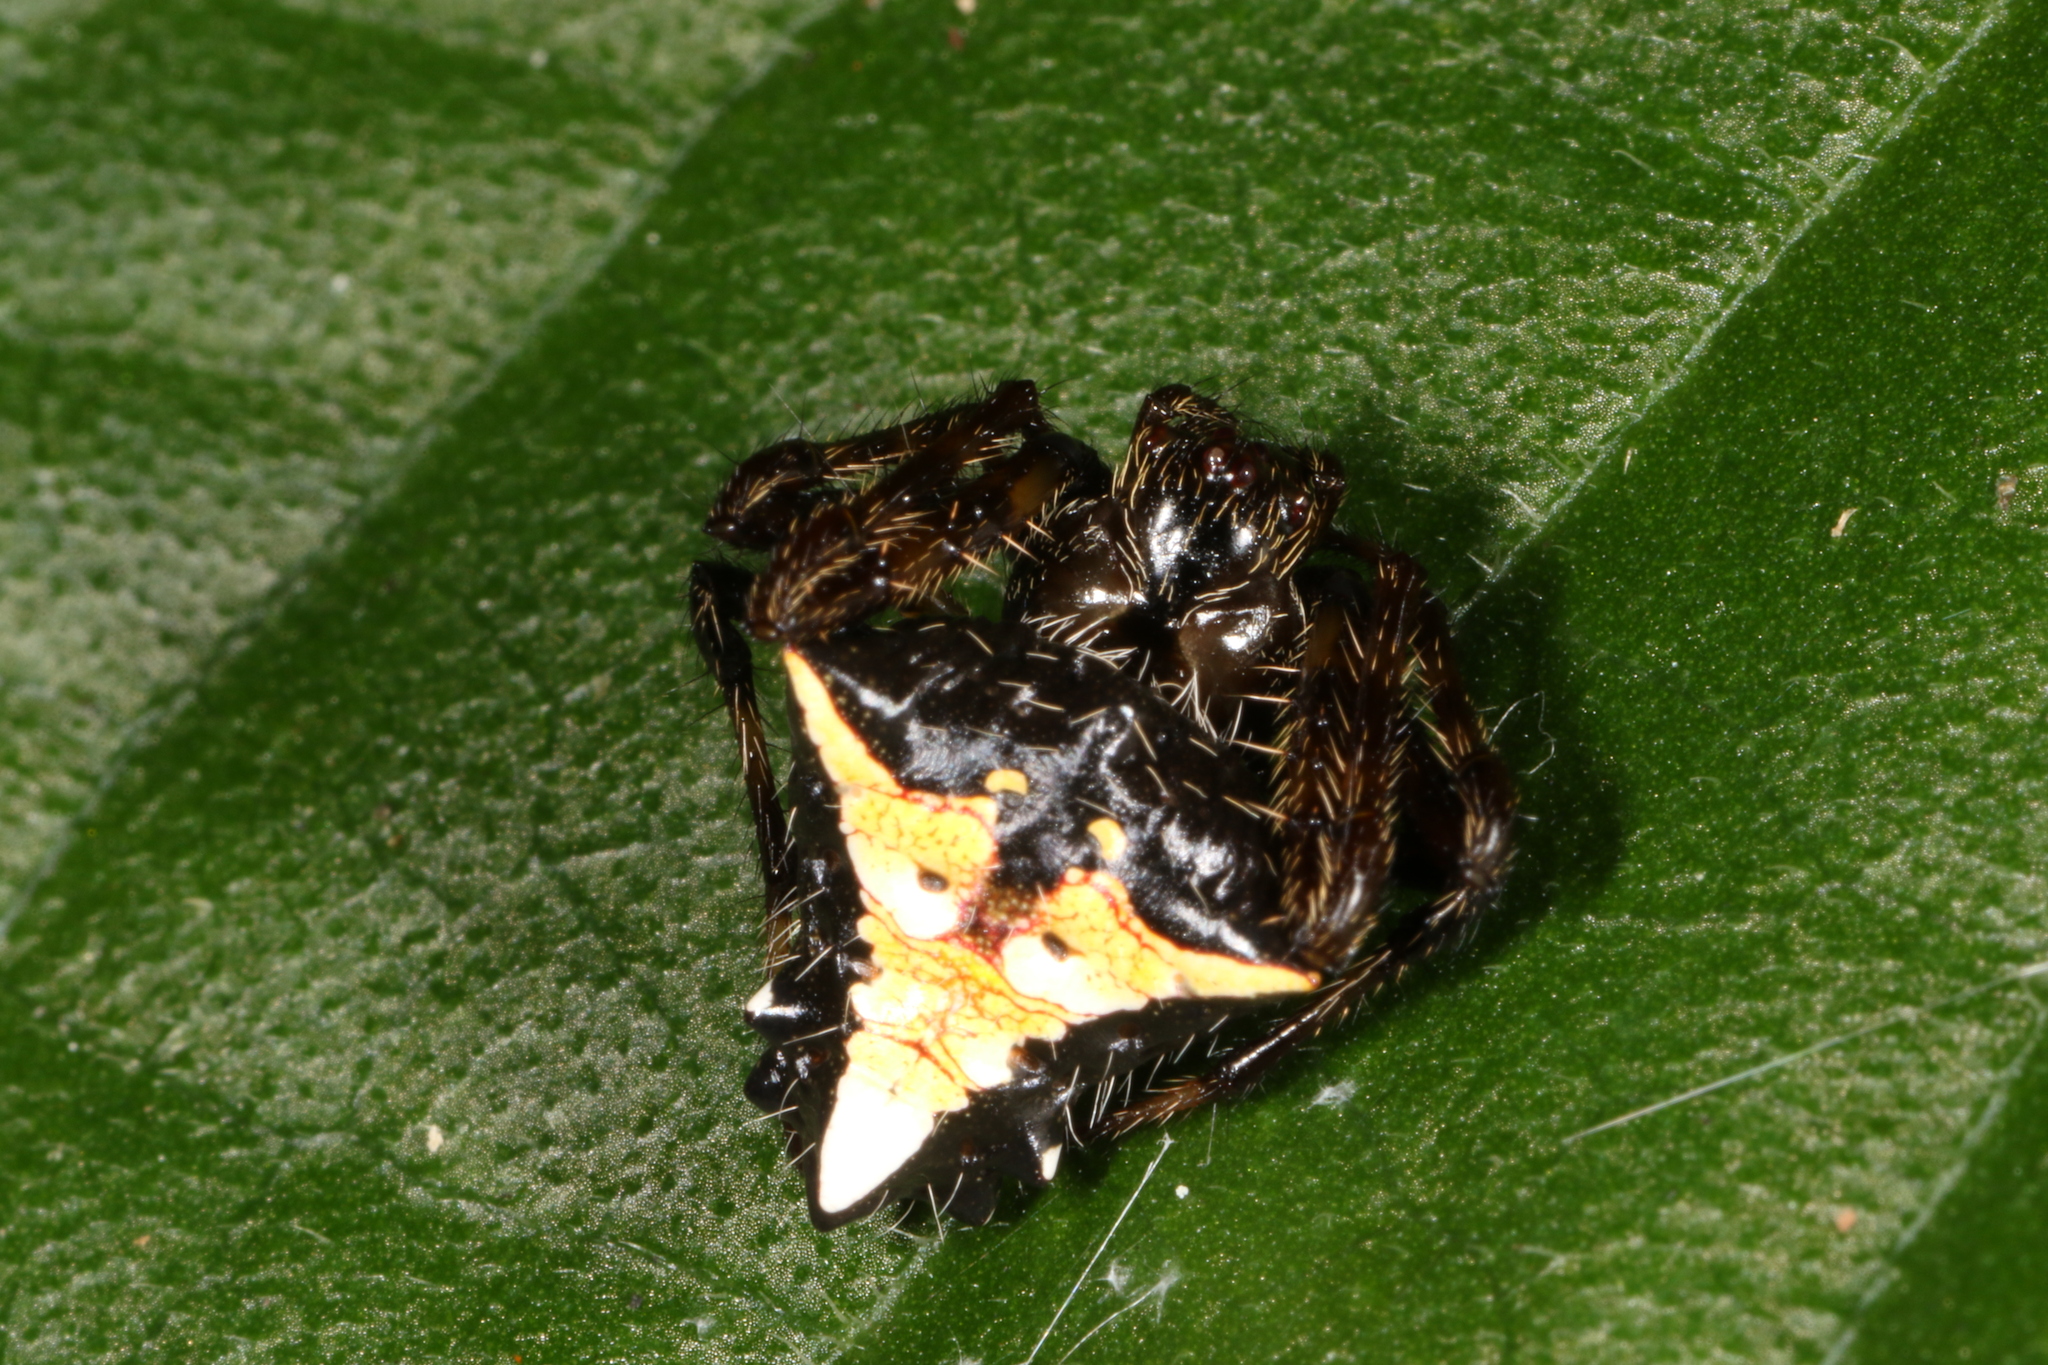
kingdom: Animalia
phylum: Arthropoda
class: Arachnida
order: Araneae
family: Araneidae
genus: Verrucosa
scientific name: Verrucosa scapofracta
